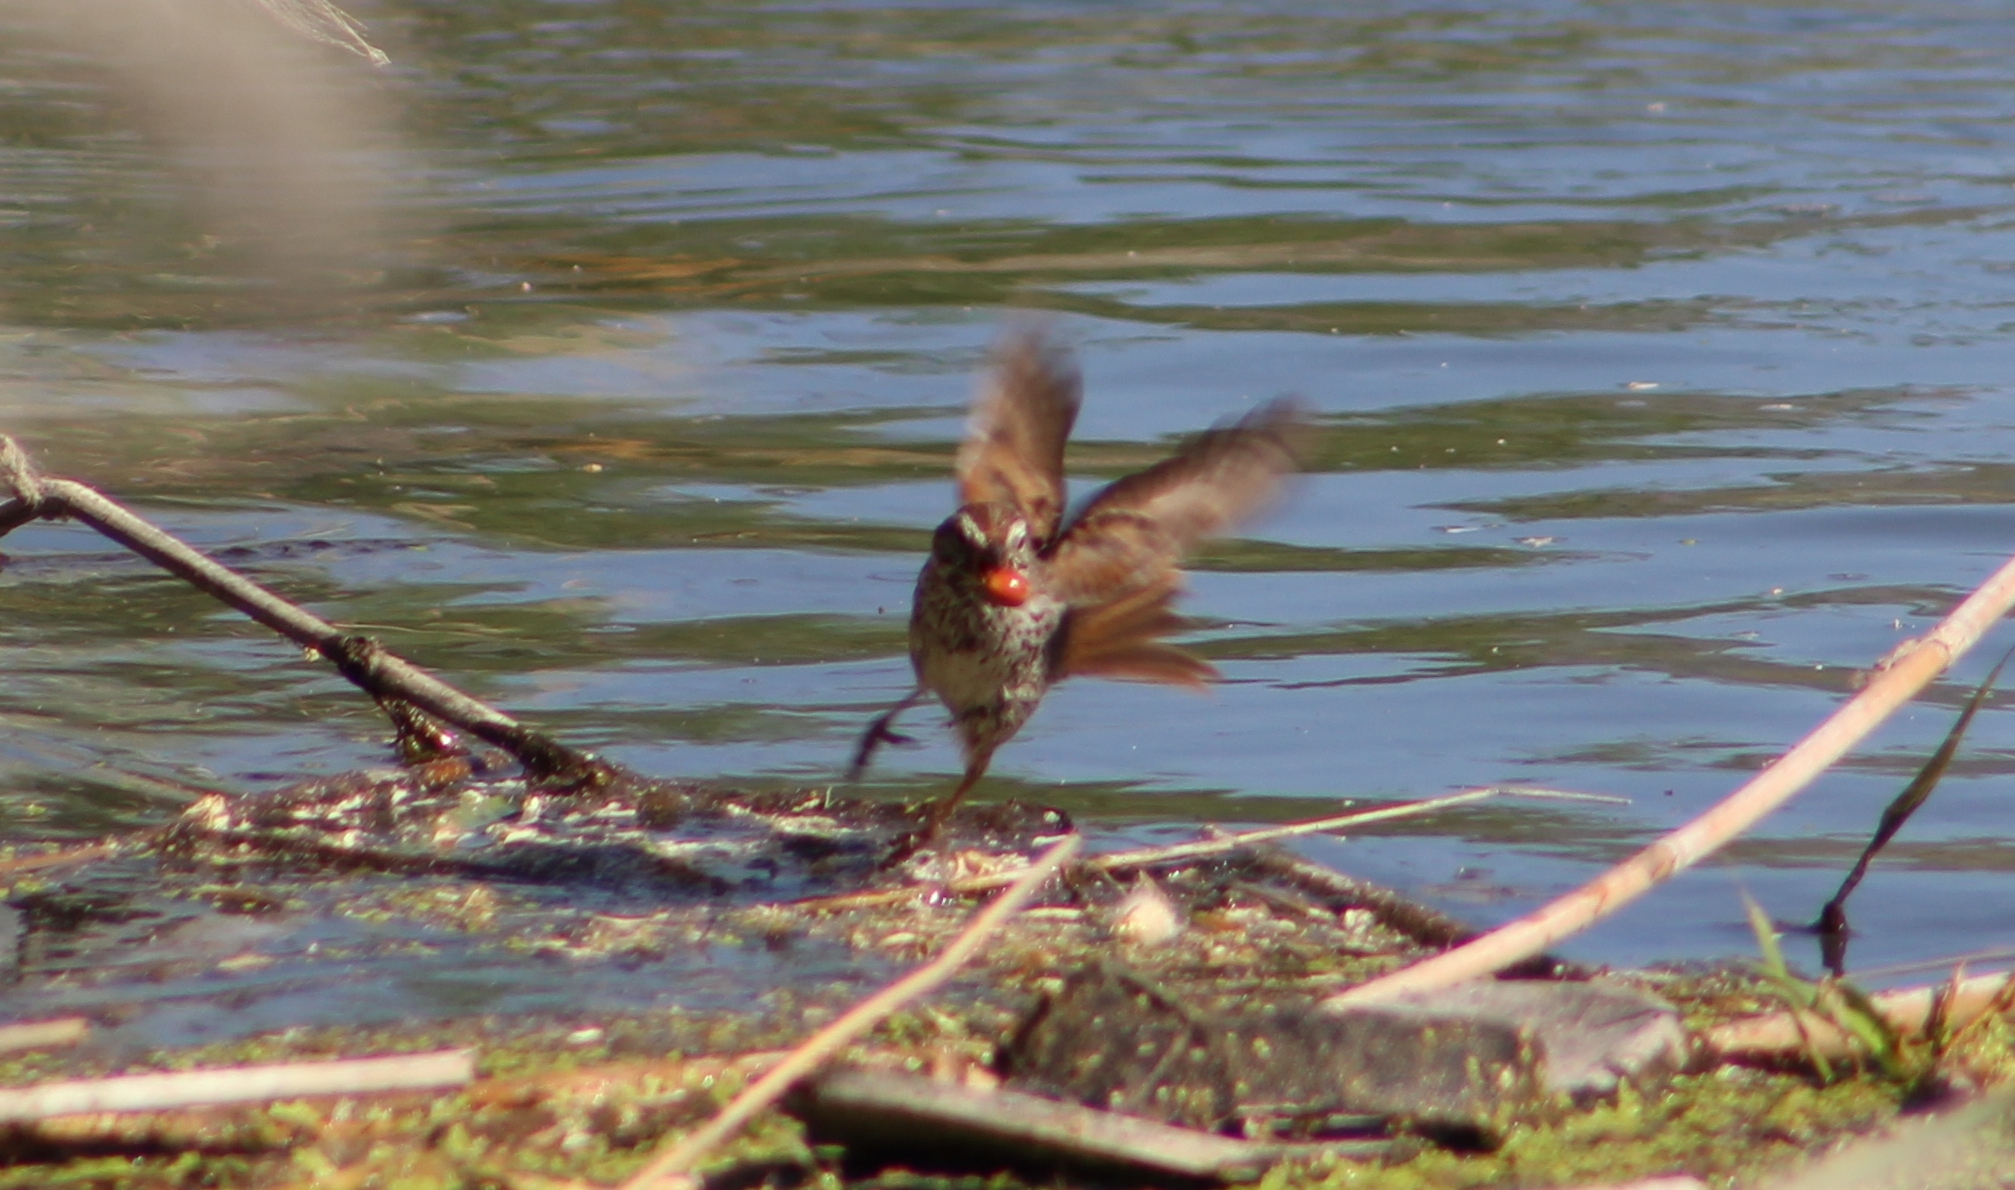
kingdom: Animalia
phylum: Chordata
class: Aves
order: Passeriformes
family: Passerellidae
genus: Melospiza
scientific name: Melospiza melodia
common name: Song sparrow
